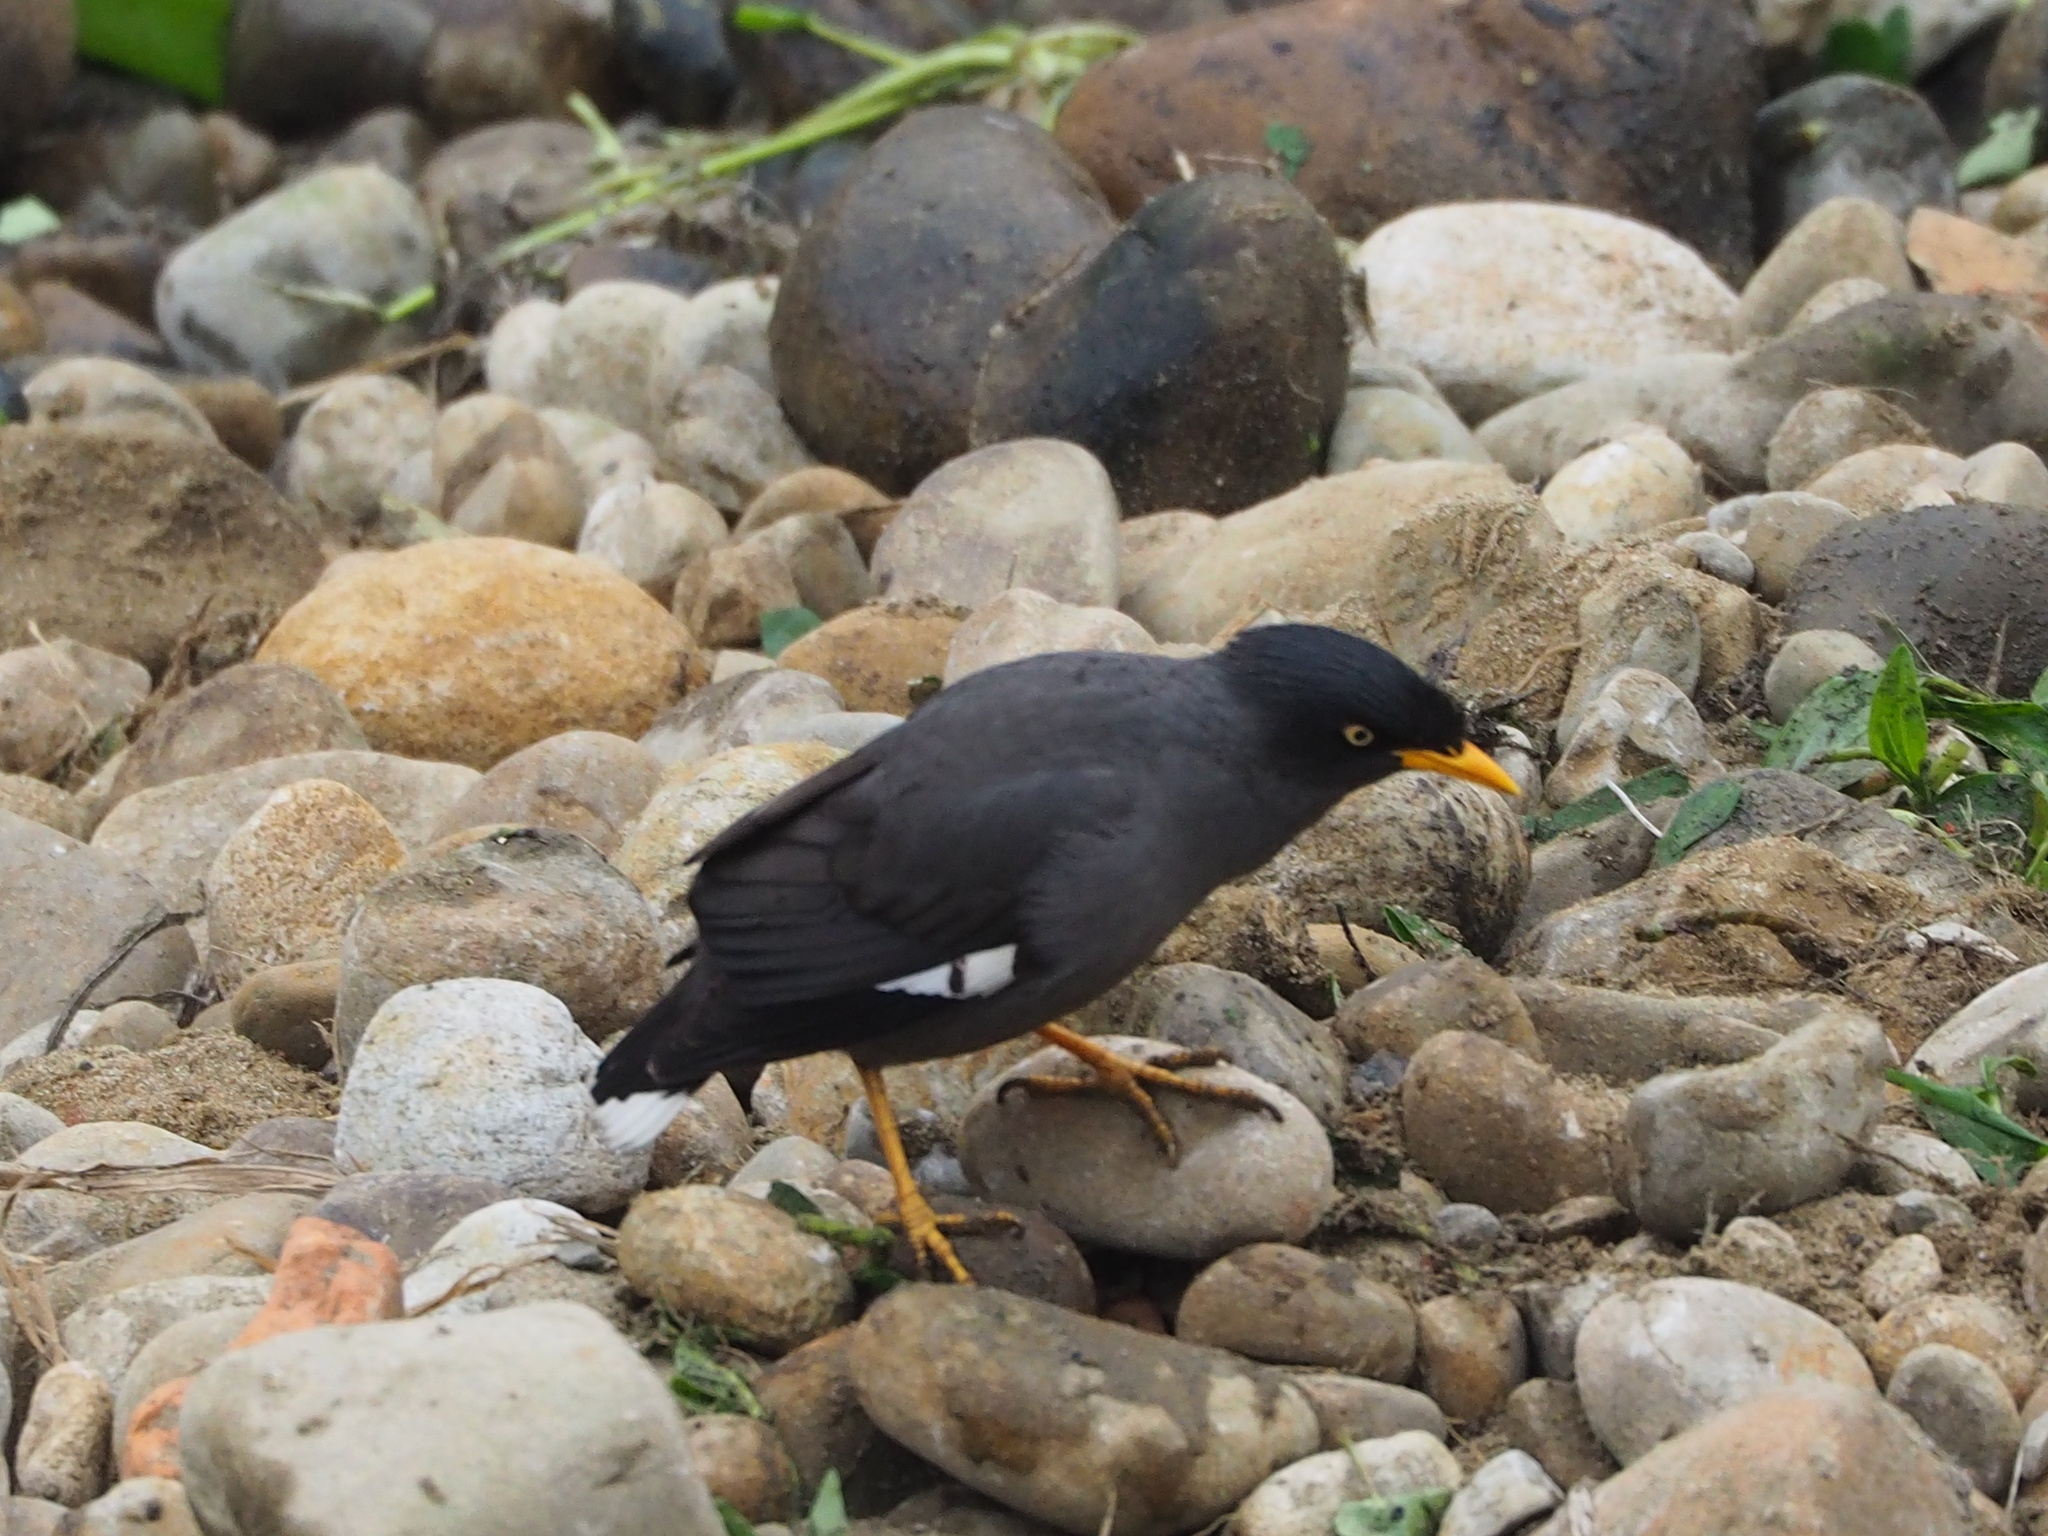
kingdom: Animalia
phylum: Chordata
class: Aves
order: Passeriformes
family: Sturnidae
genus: Acridotheres
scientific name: Acridotheres javanicus
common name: Javan myna
